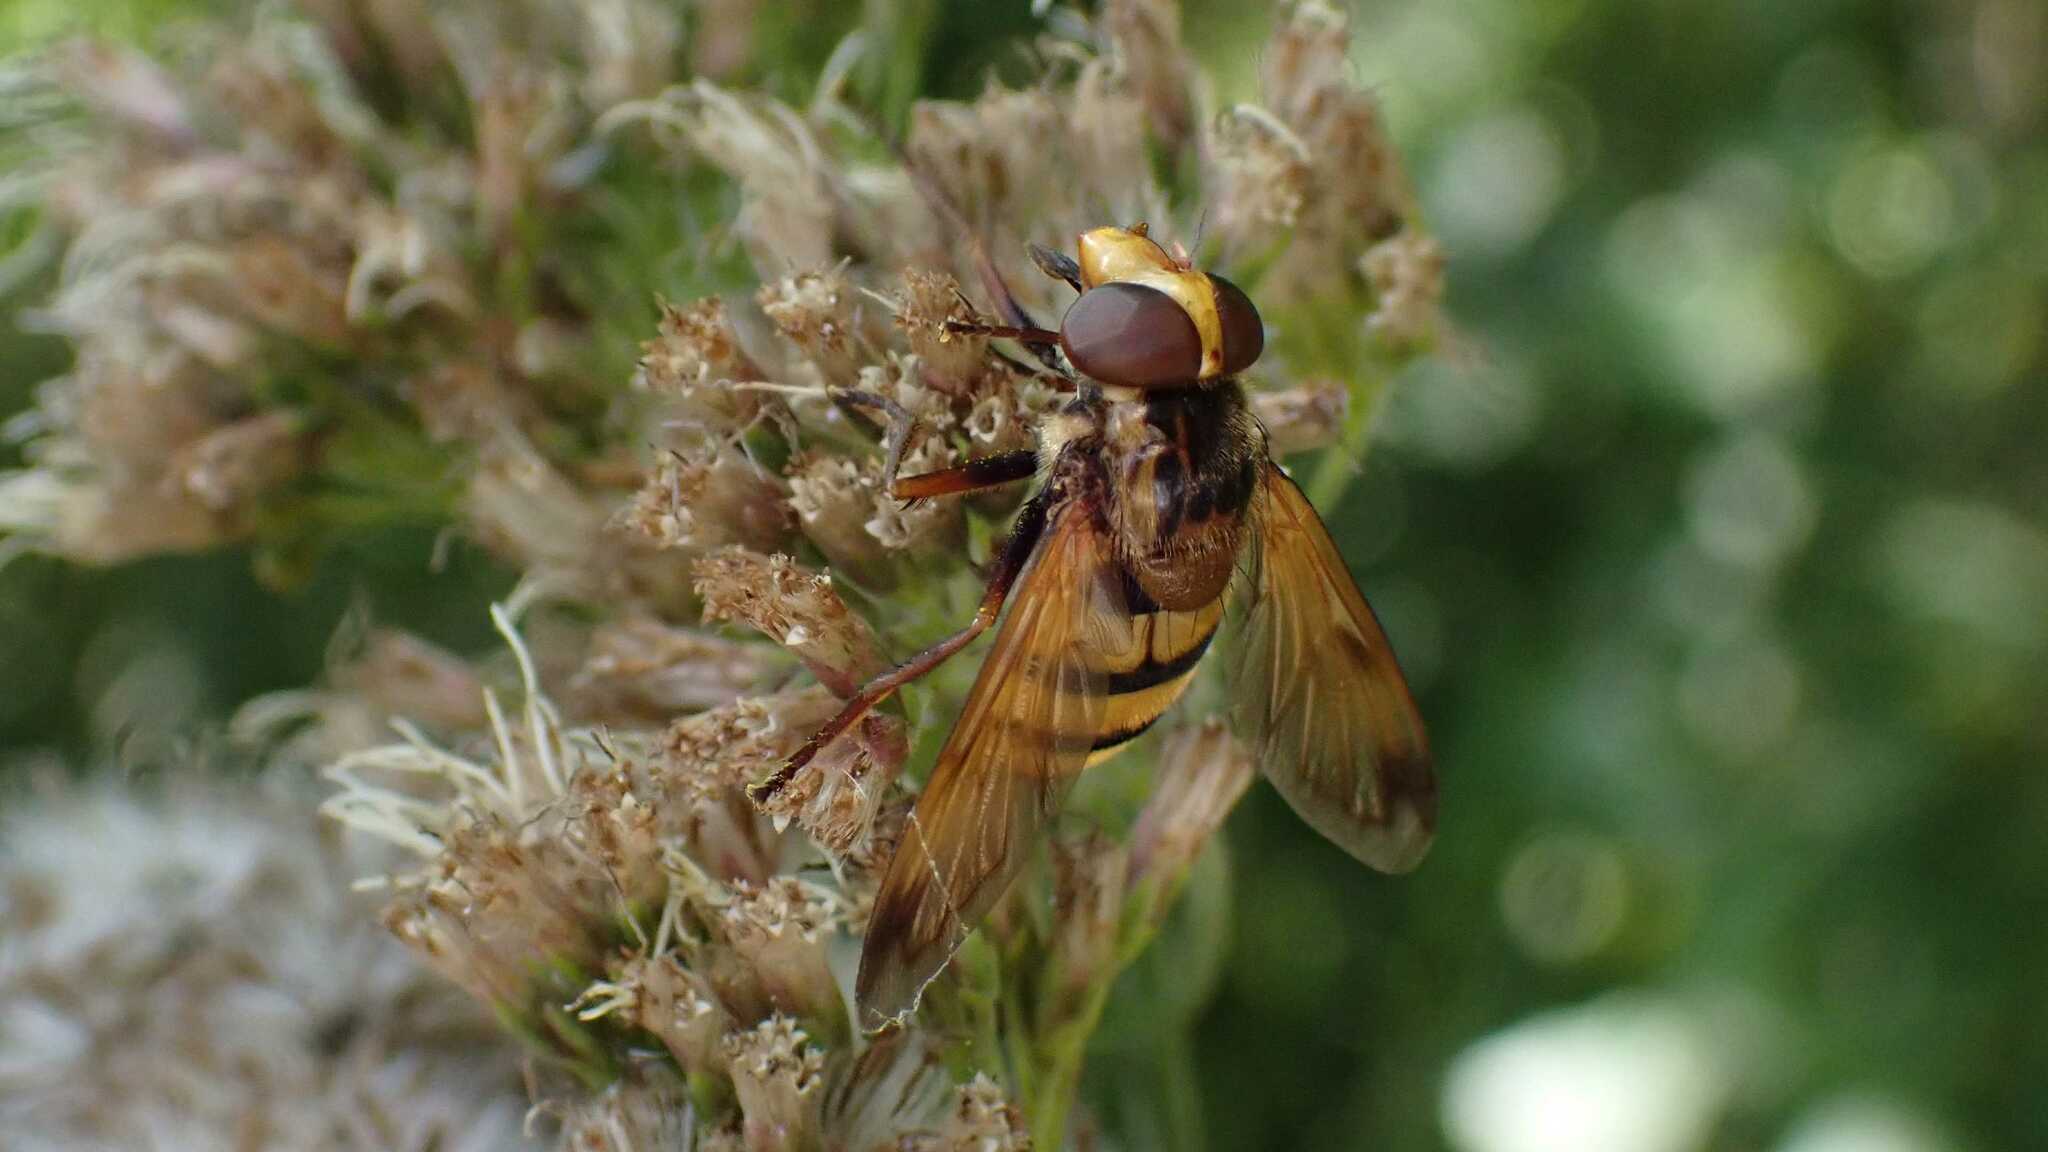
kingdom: Animalia
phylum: Arthropoda
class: Insecta
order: Diptera
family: Syrphidae
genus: Volucella
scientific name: Volucella inanis
